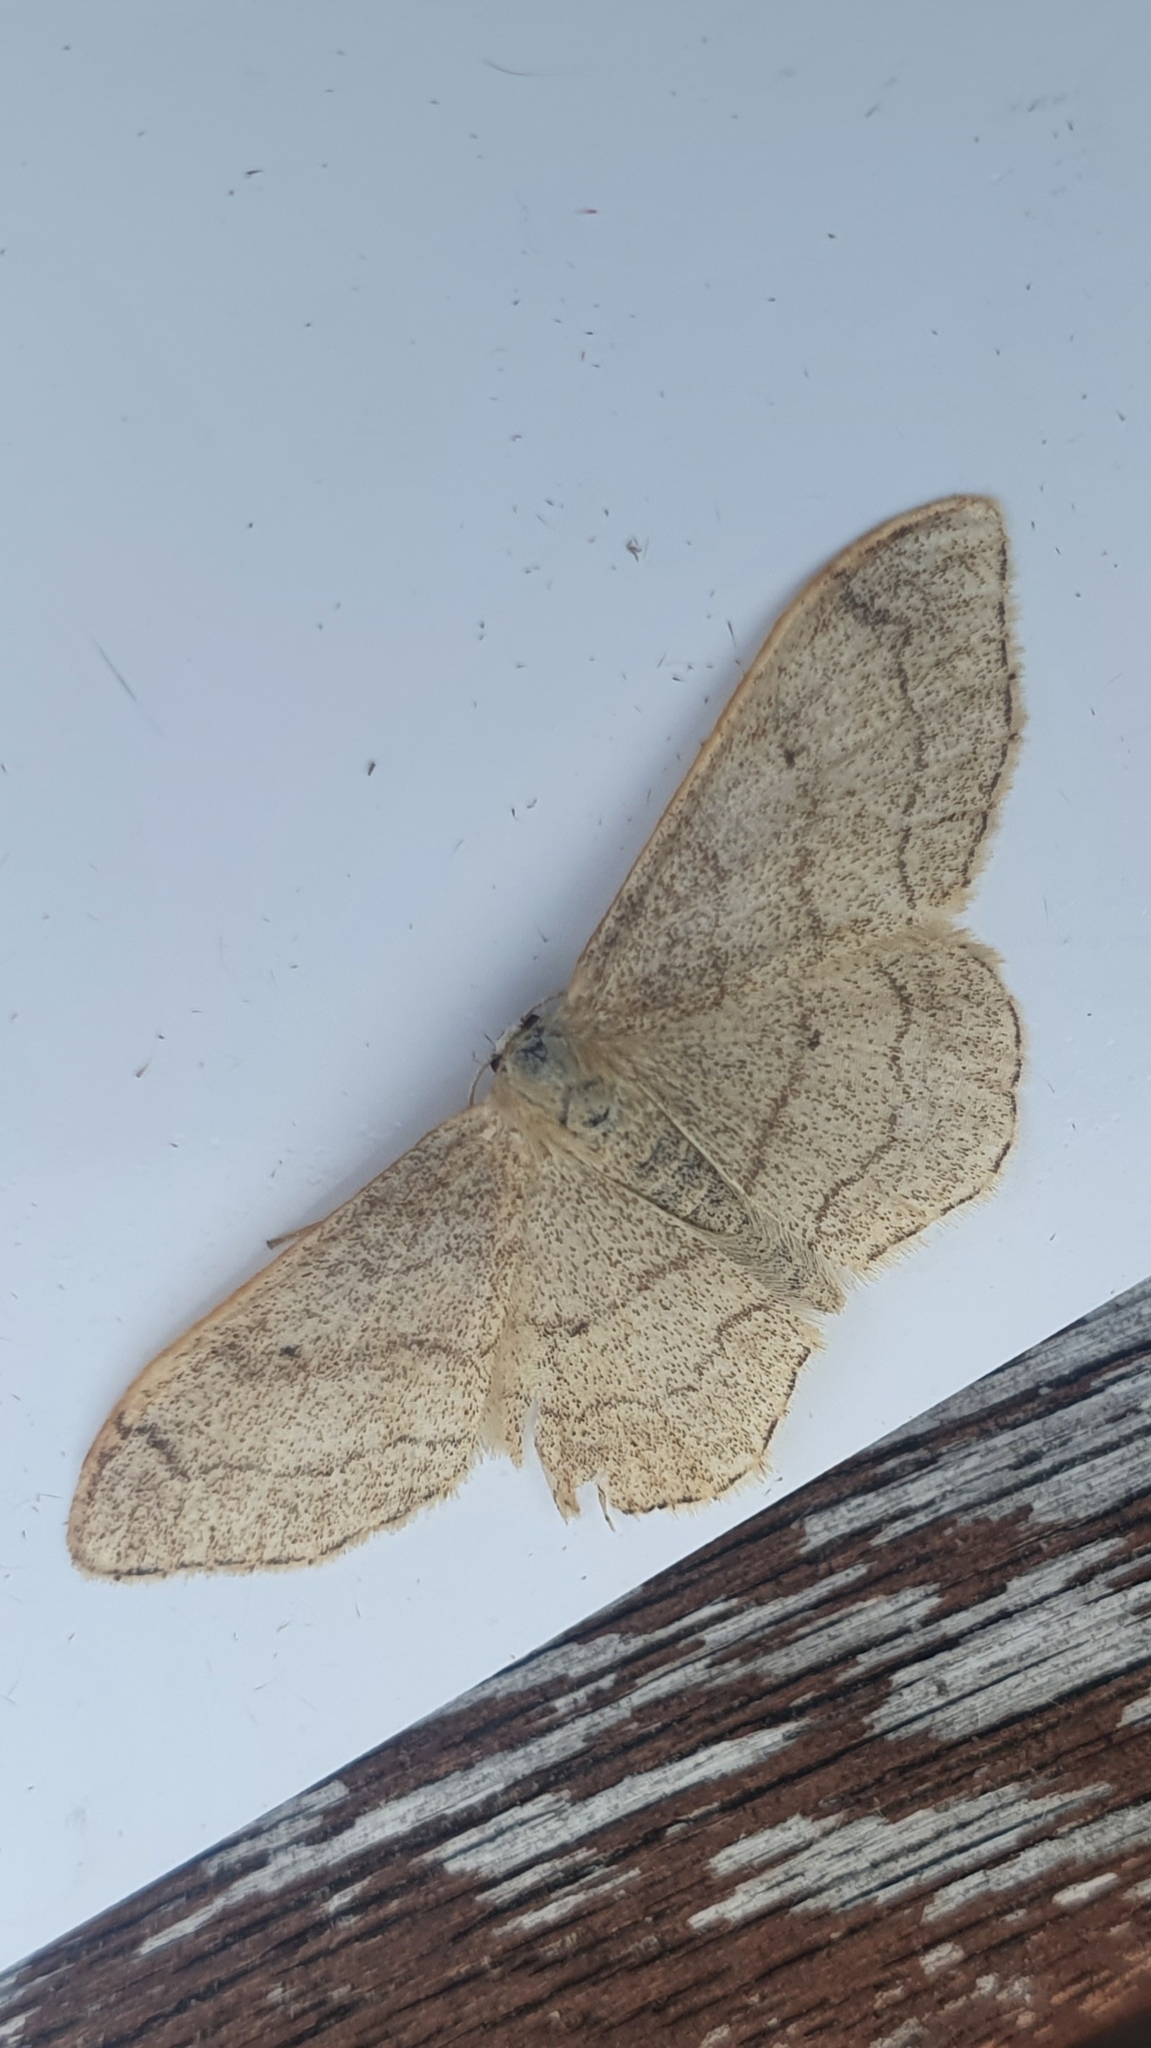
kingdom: Animalia
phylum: Arthropoda
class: Insecta
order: Lepidoptera
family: Geometridae
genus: Idaea
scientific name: Idaea aversata
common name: Riband wave
